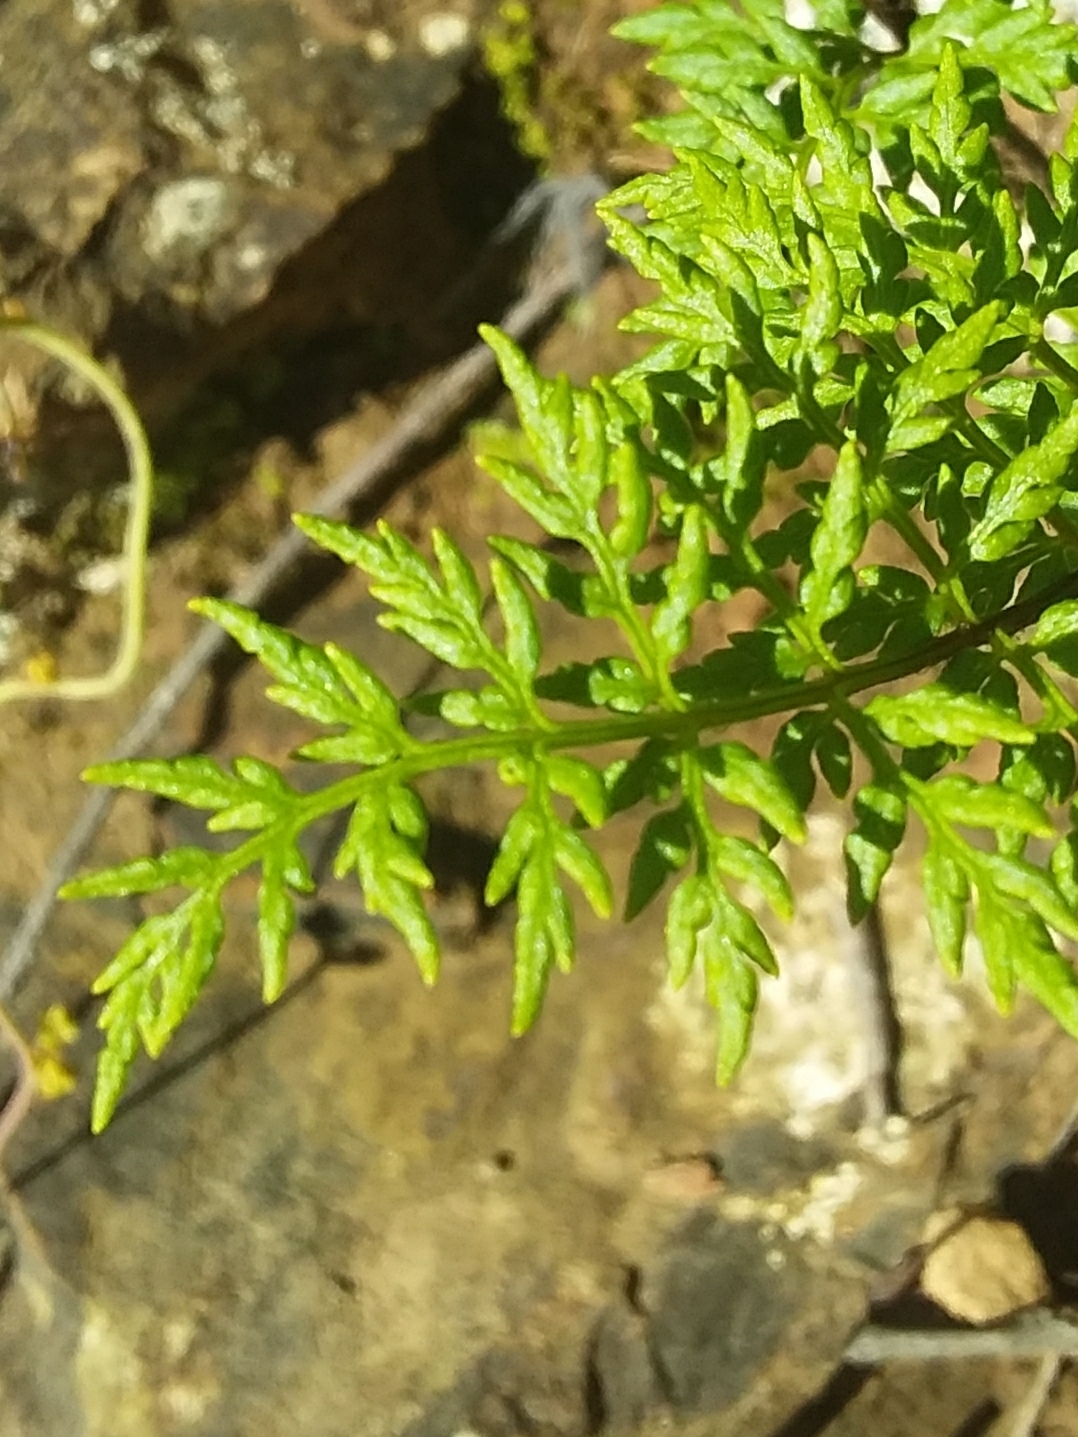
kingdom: Plantae
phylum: Tracheophyta
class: Polypodiopsida
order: Polypodiales
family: Pteridaceae
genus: Cheilanthes
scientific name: Cheilanthes austrotenuifolia
